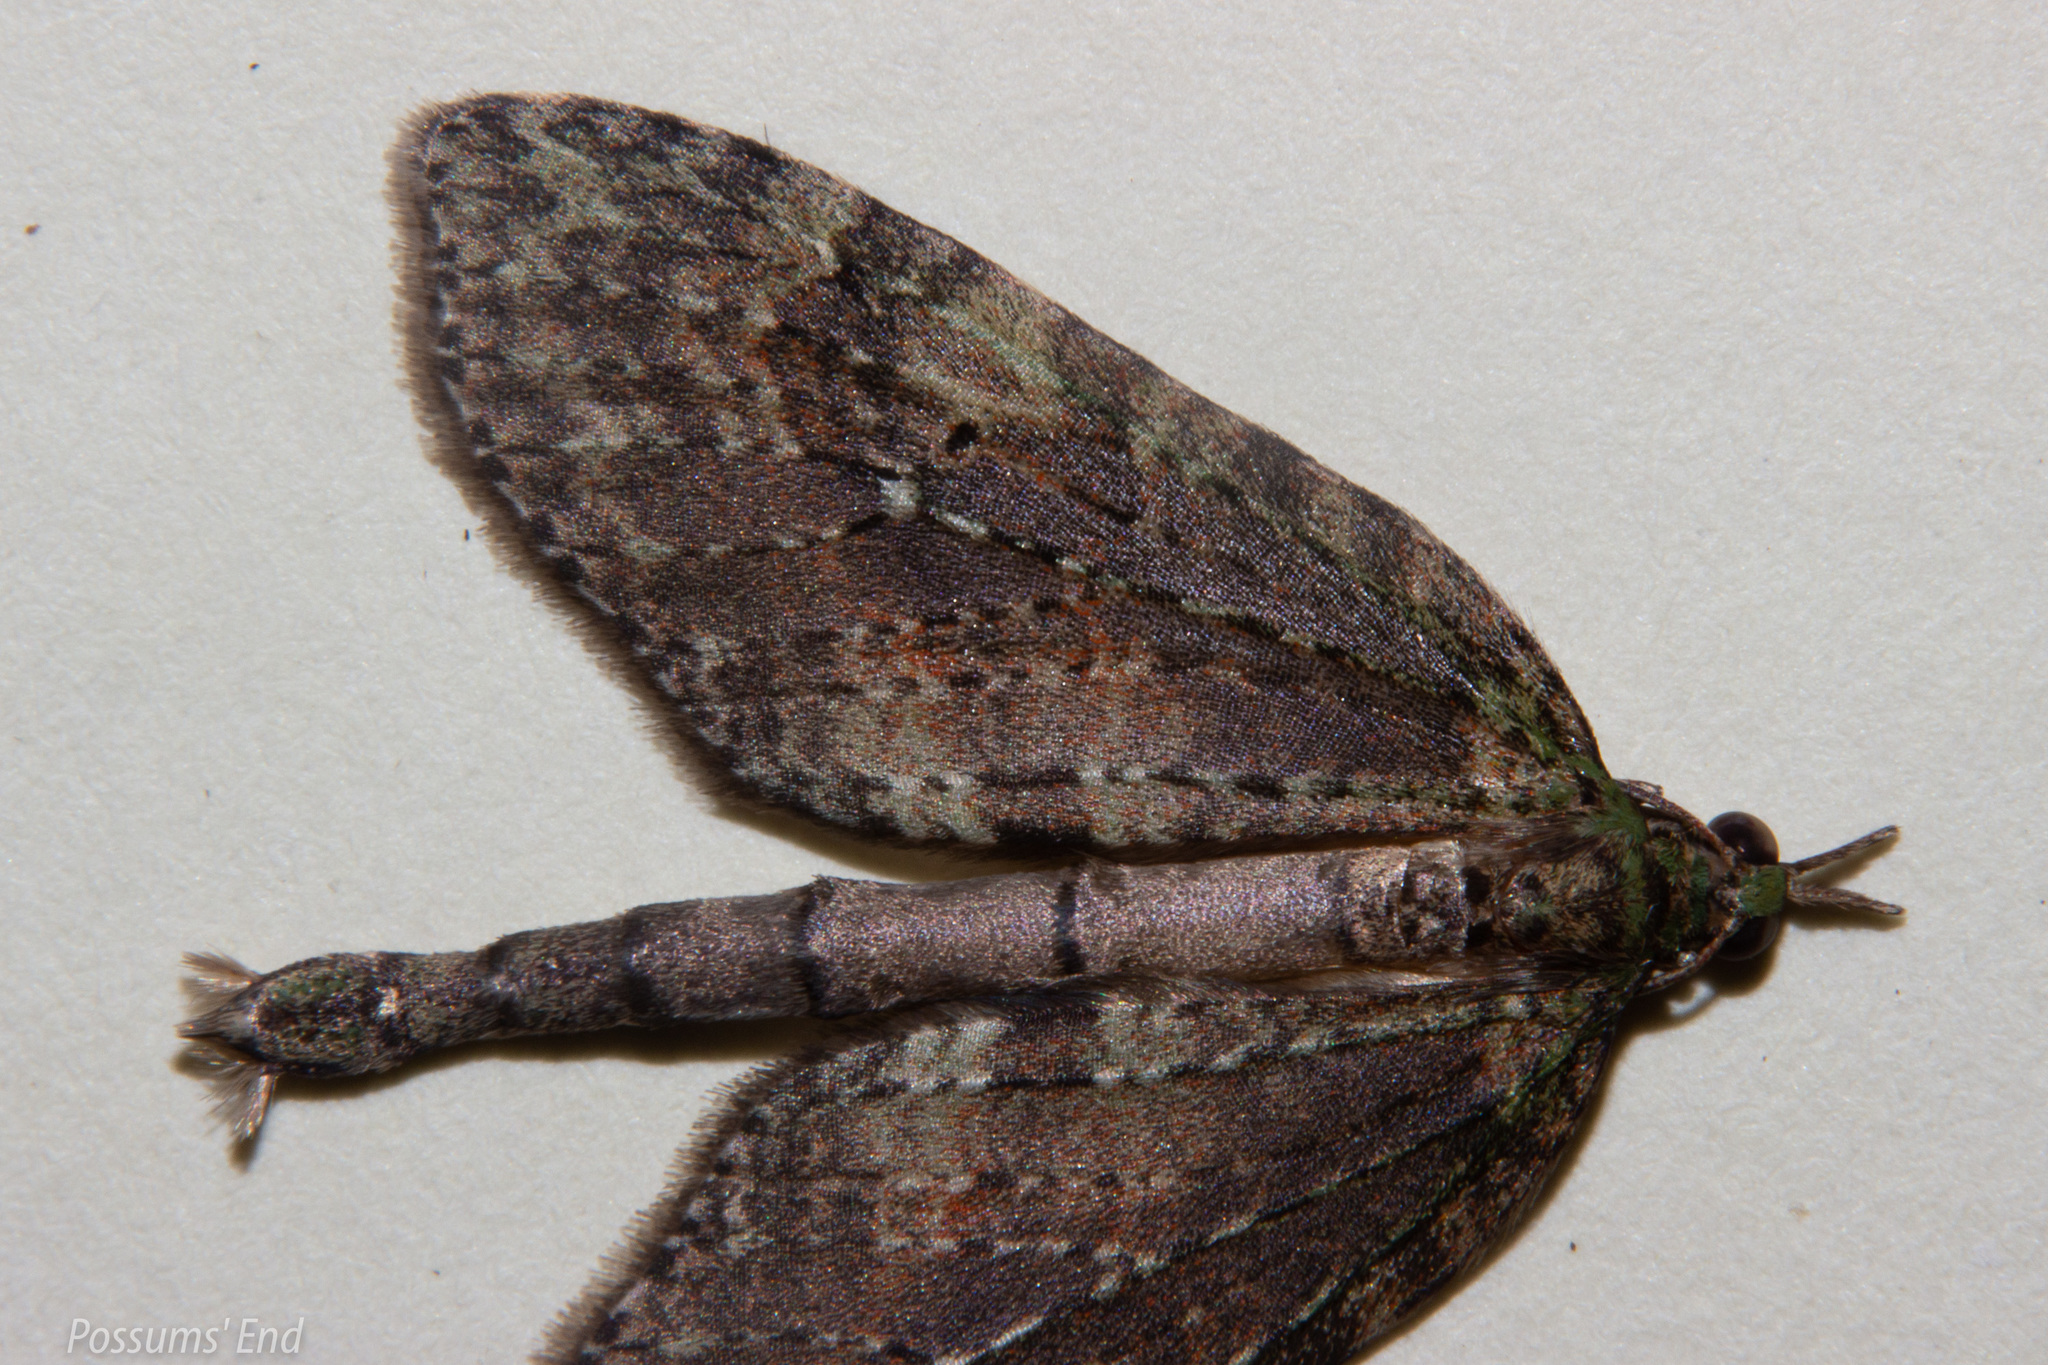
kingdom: Animalia
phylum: Arthropoda
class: Insecta
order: Lepidoptera
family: Geometridae
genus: Tatosoma
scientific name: Tatosoma transitaria
